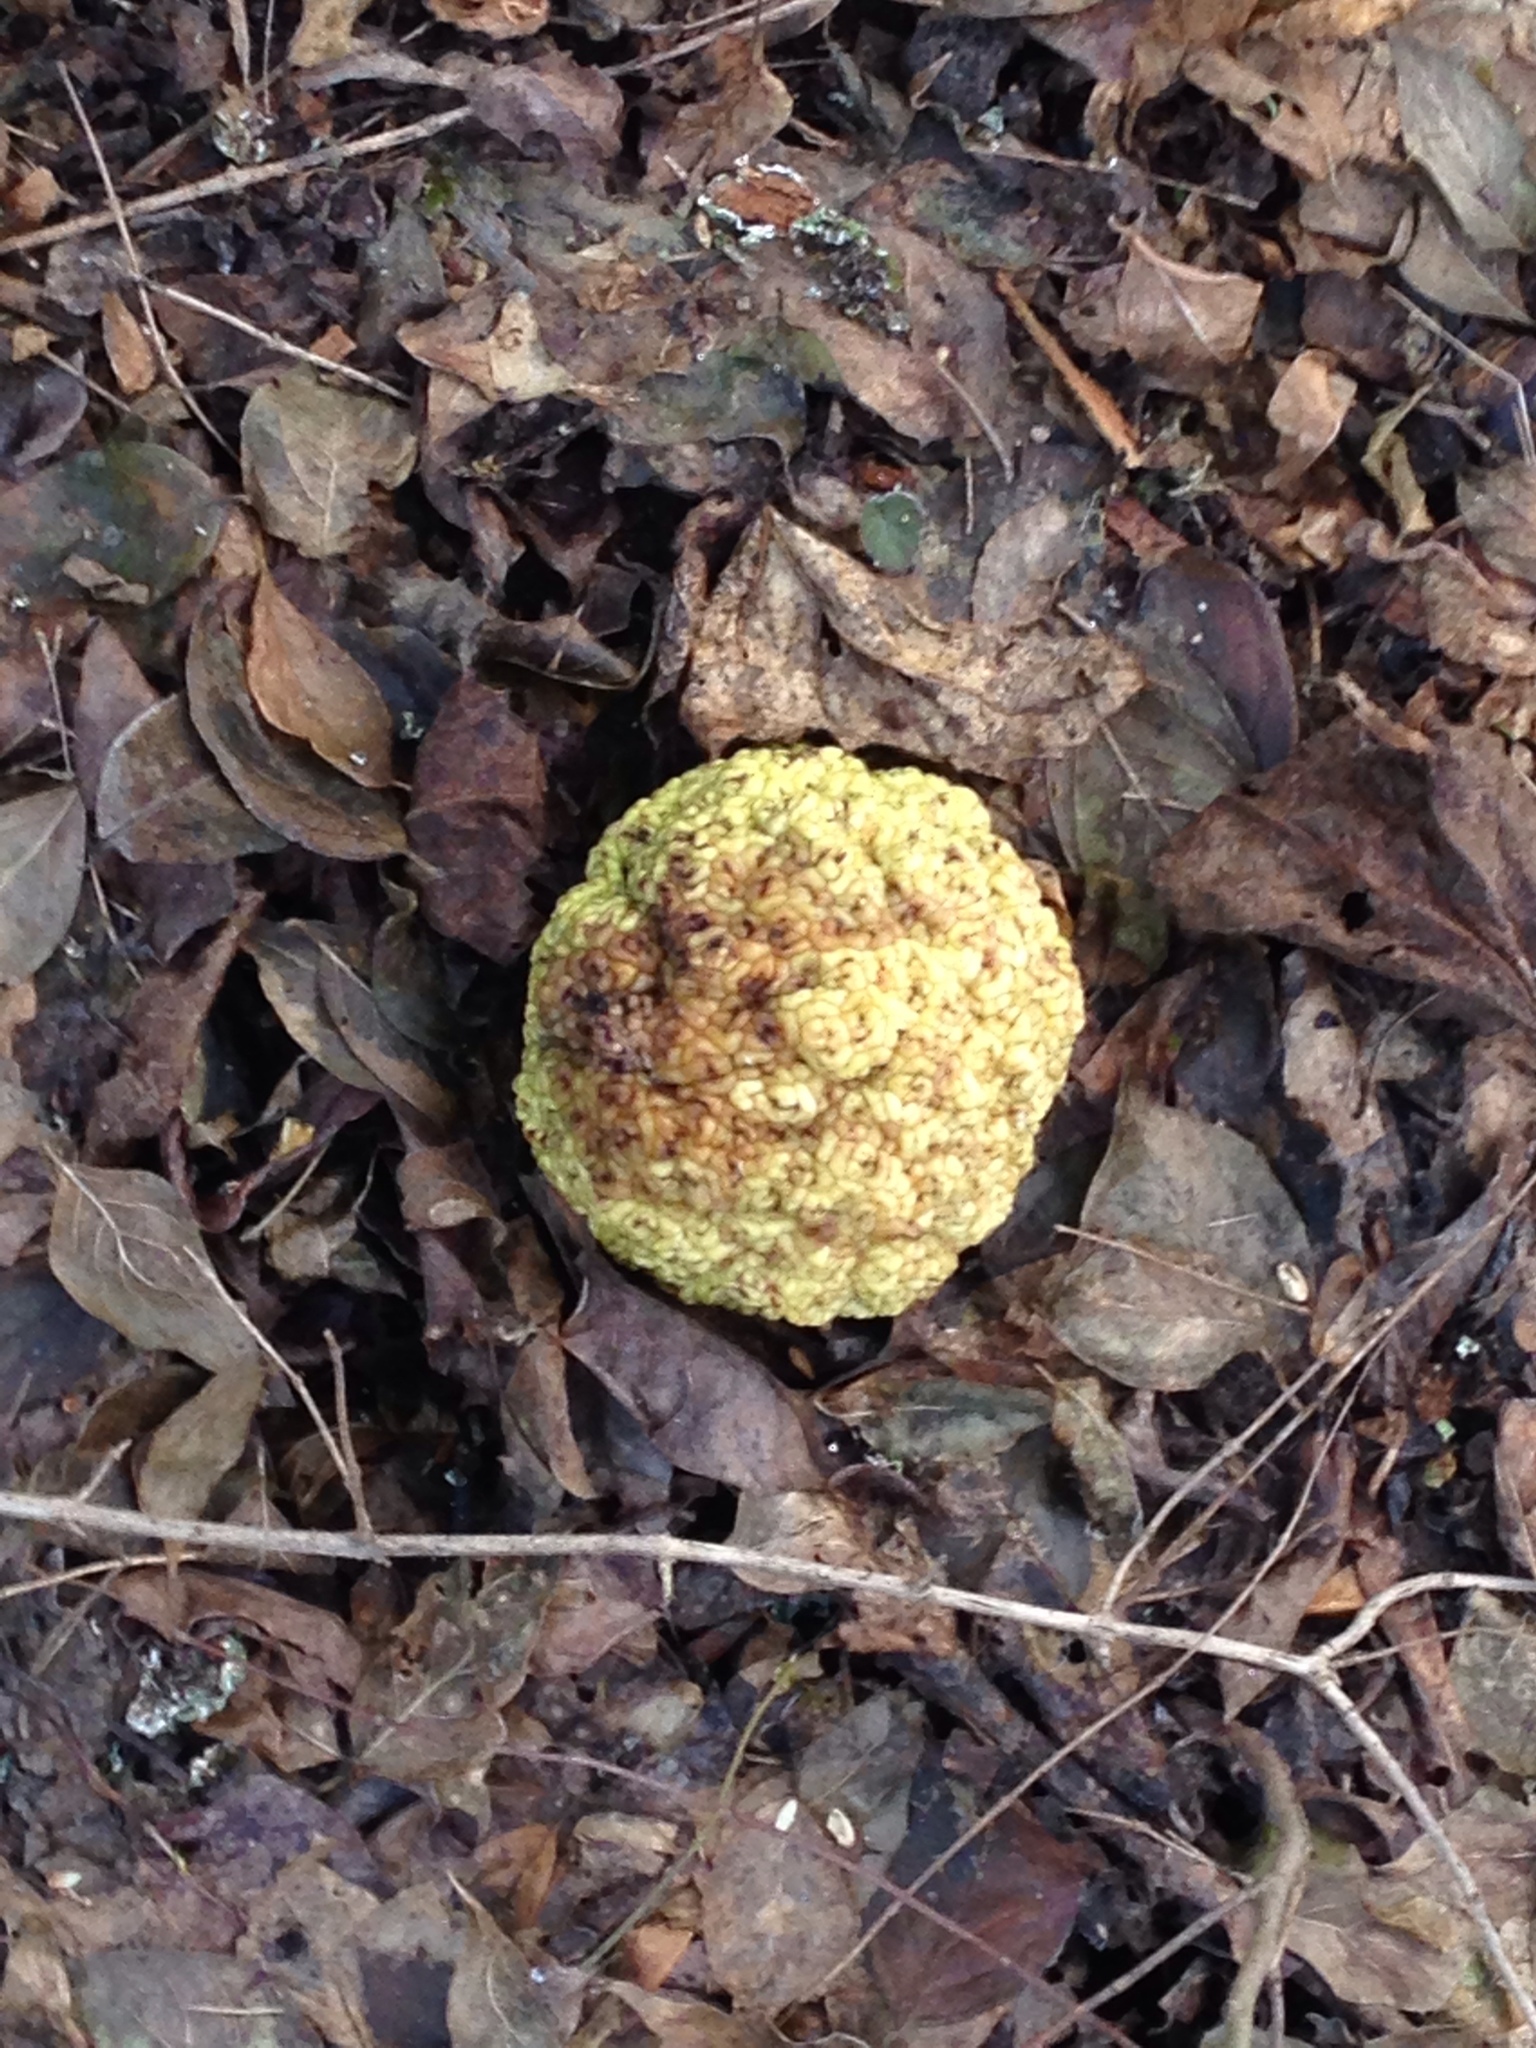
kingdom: Plantae
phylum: Tracheophyta
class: Magnoliopsida
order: Rosales
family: Moraceae
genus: Maclura
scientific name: Maclura pomifera
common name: Osage-orange
